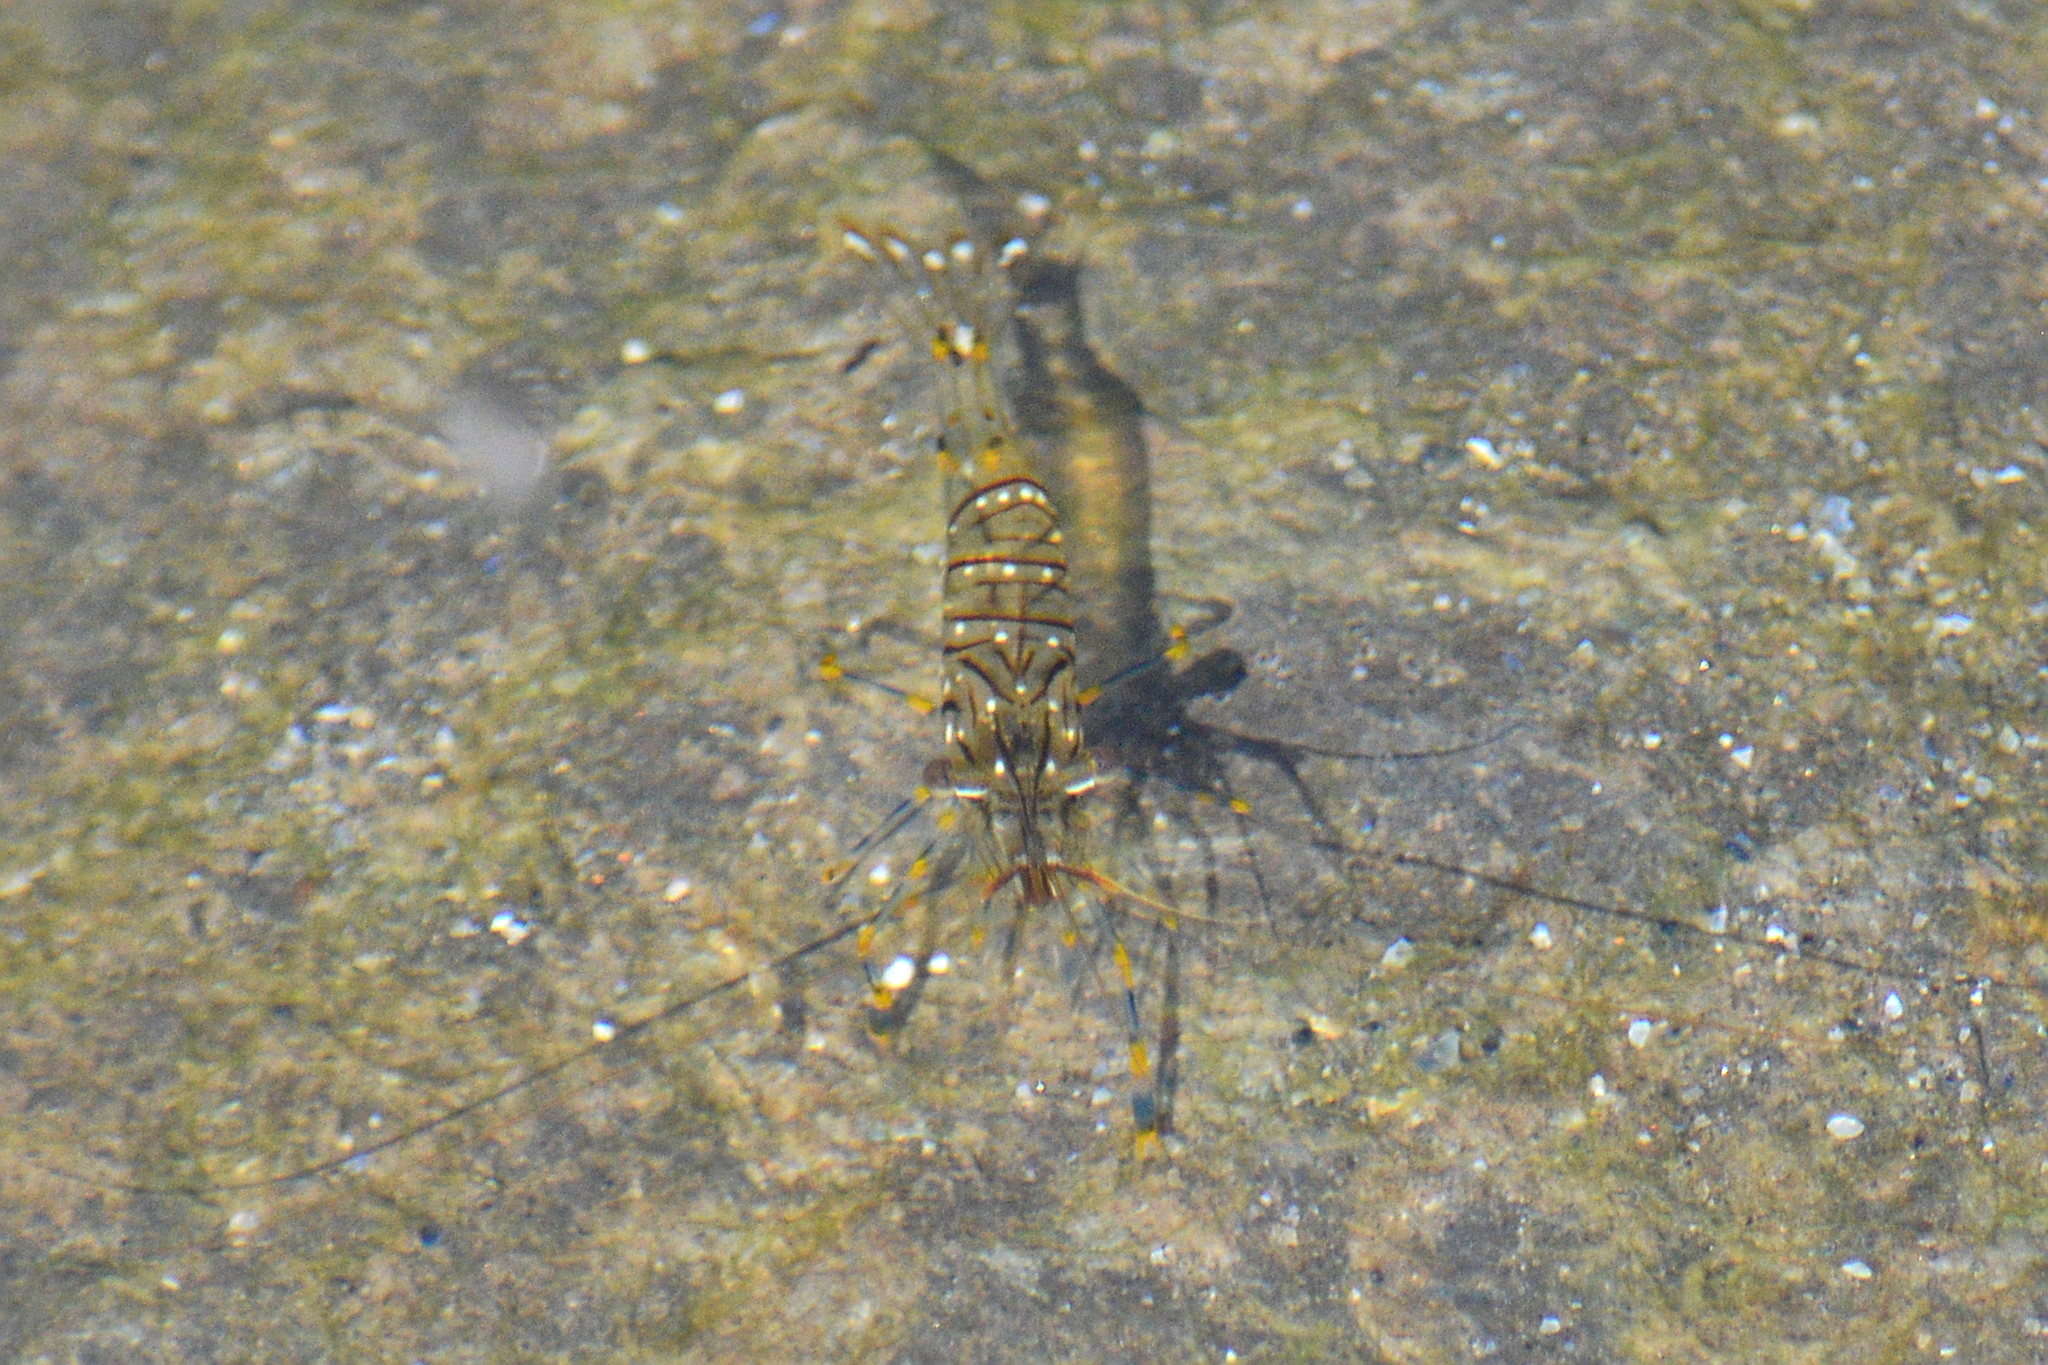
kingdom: Animalia
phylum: Arthropoda
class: Malacostraca
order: Decapoda
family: Palaemonidae
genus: Palaemon
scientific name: Palaemon elegans
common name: Grass prawm
